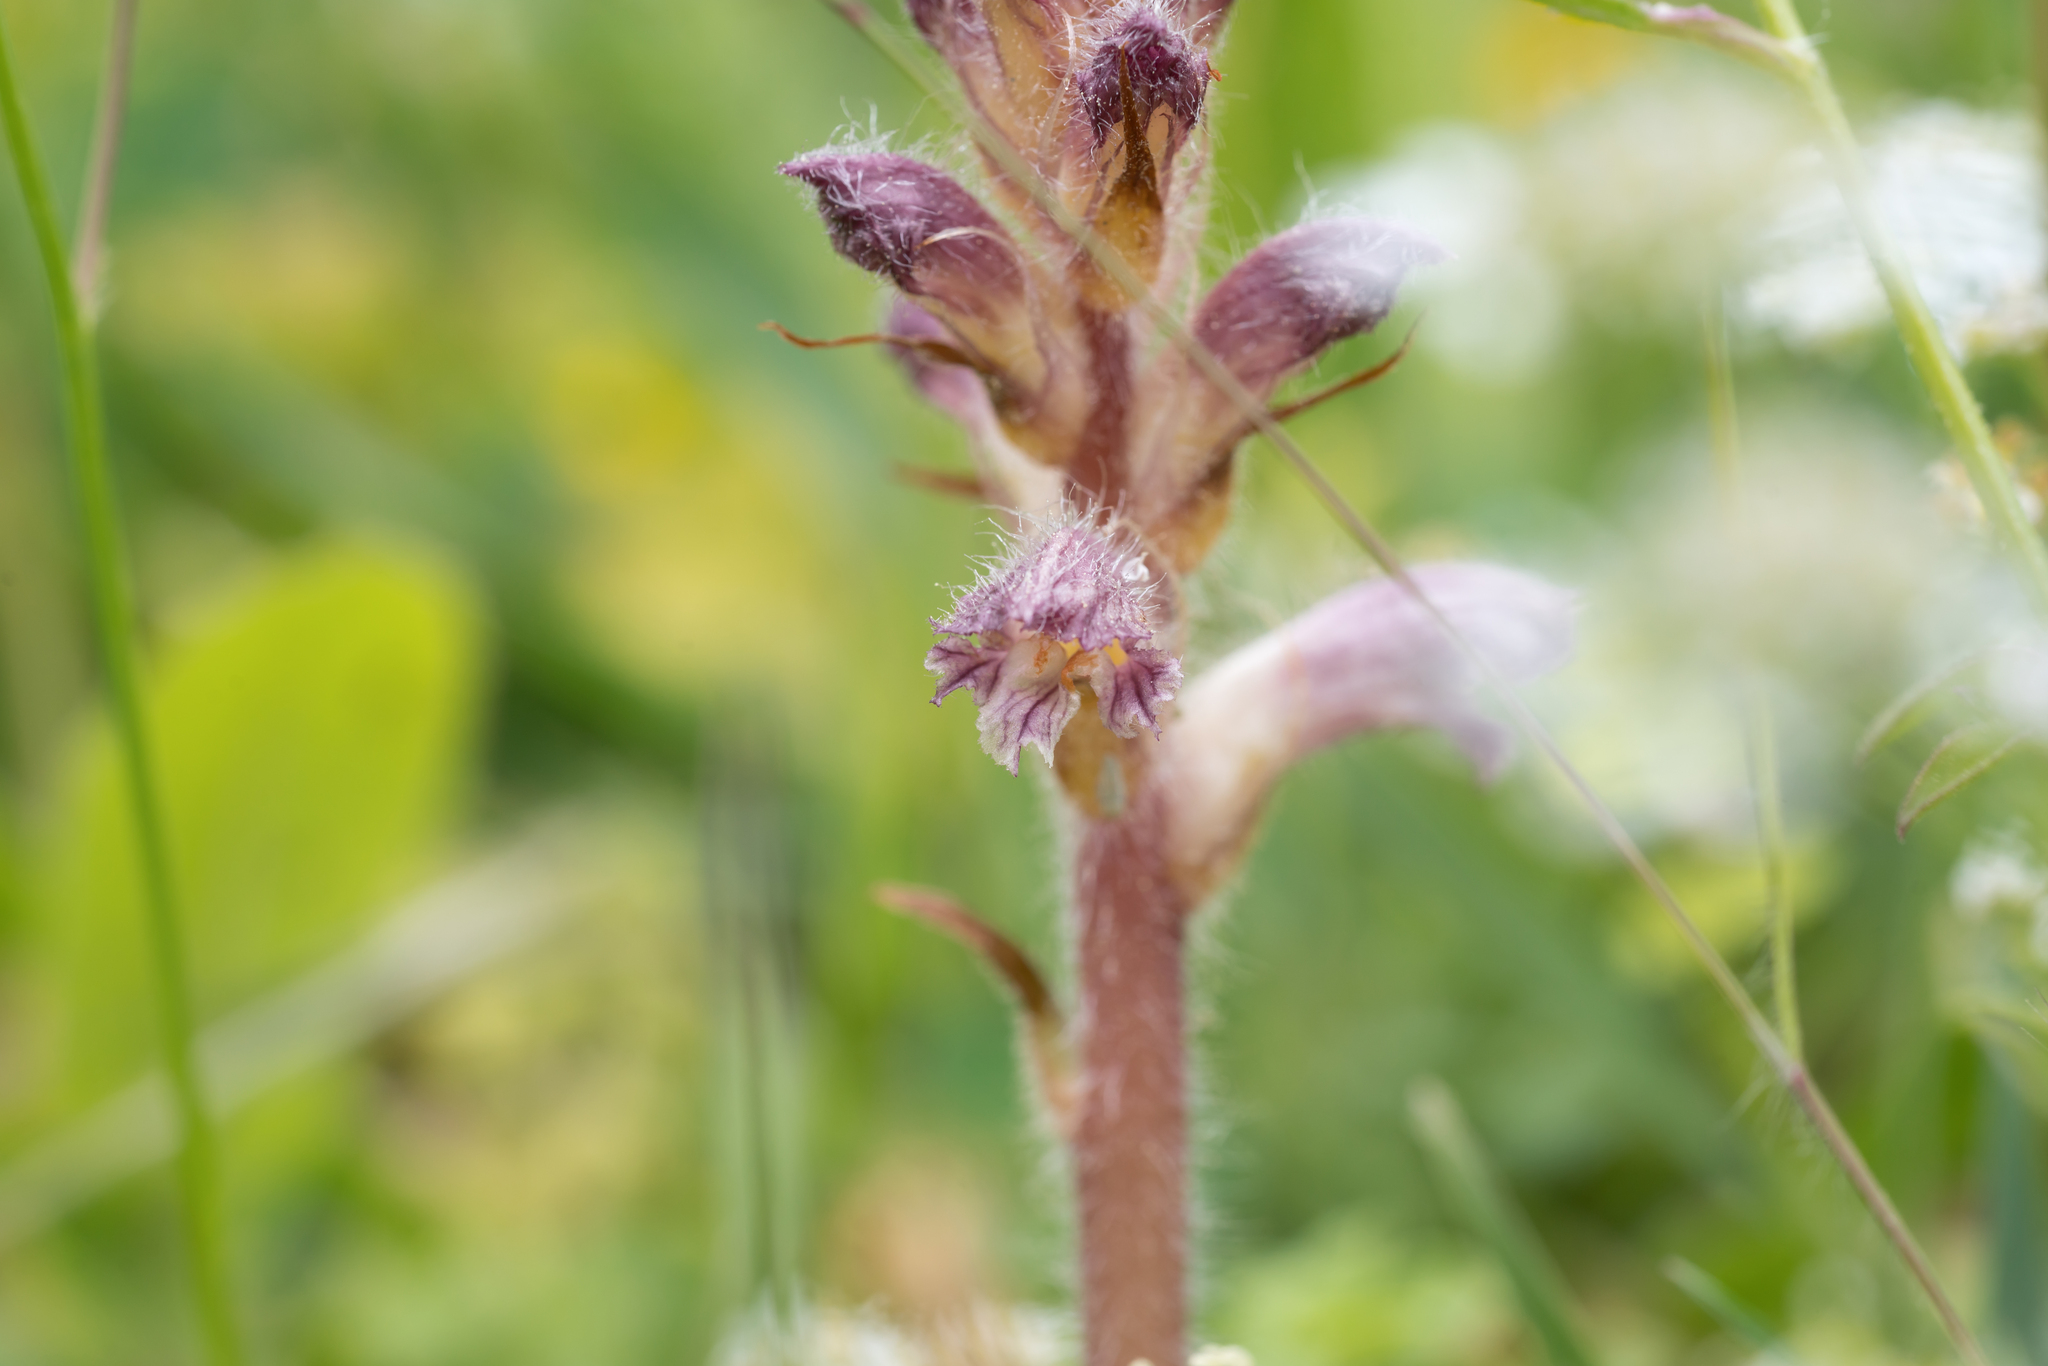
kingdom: Plantae
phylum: Tracheophyta
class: Magnoliopsida
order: Lamiales
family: Orobanchaceae
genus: Orobanche
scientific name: Orobanche pubescens
